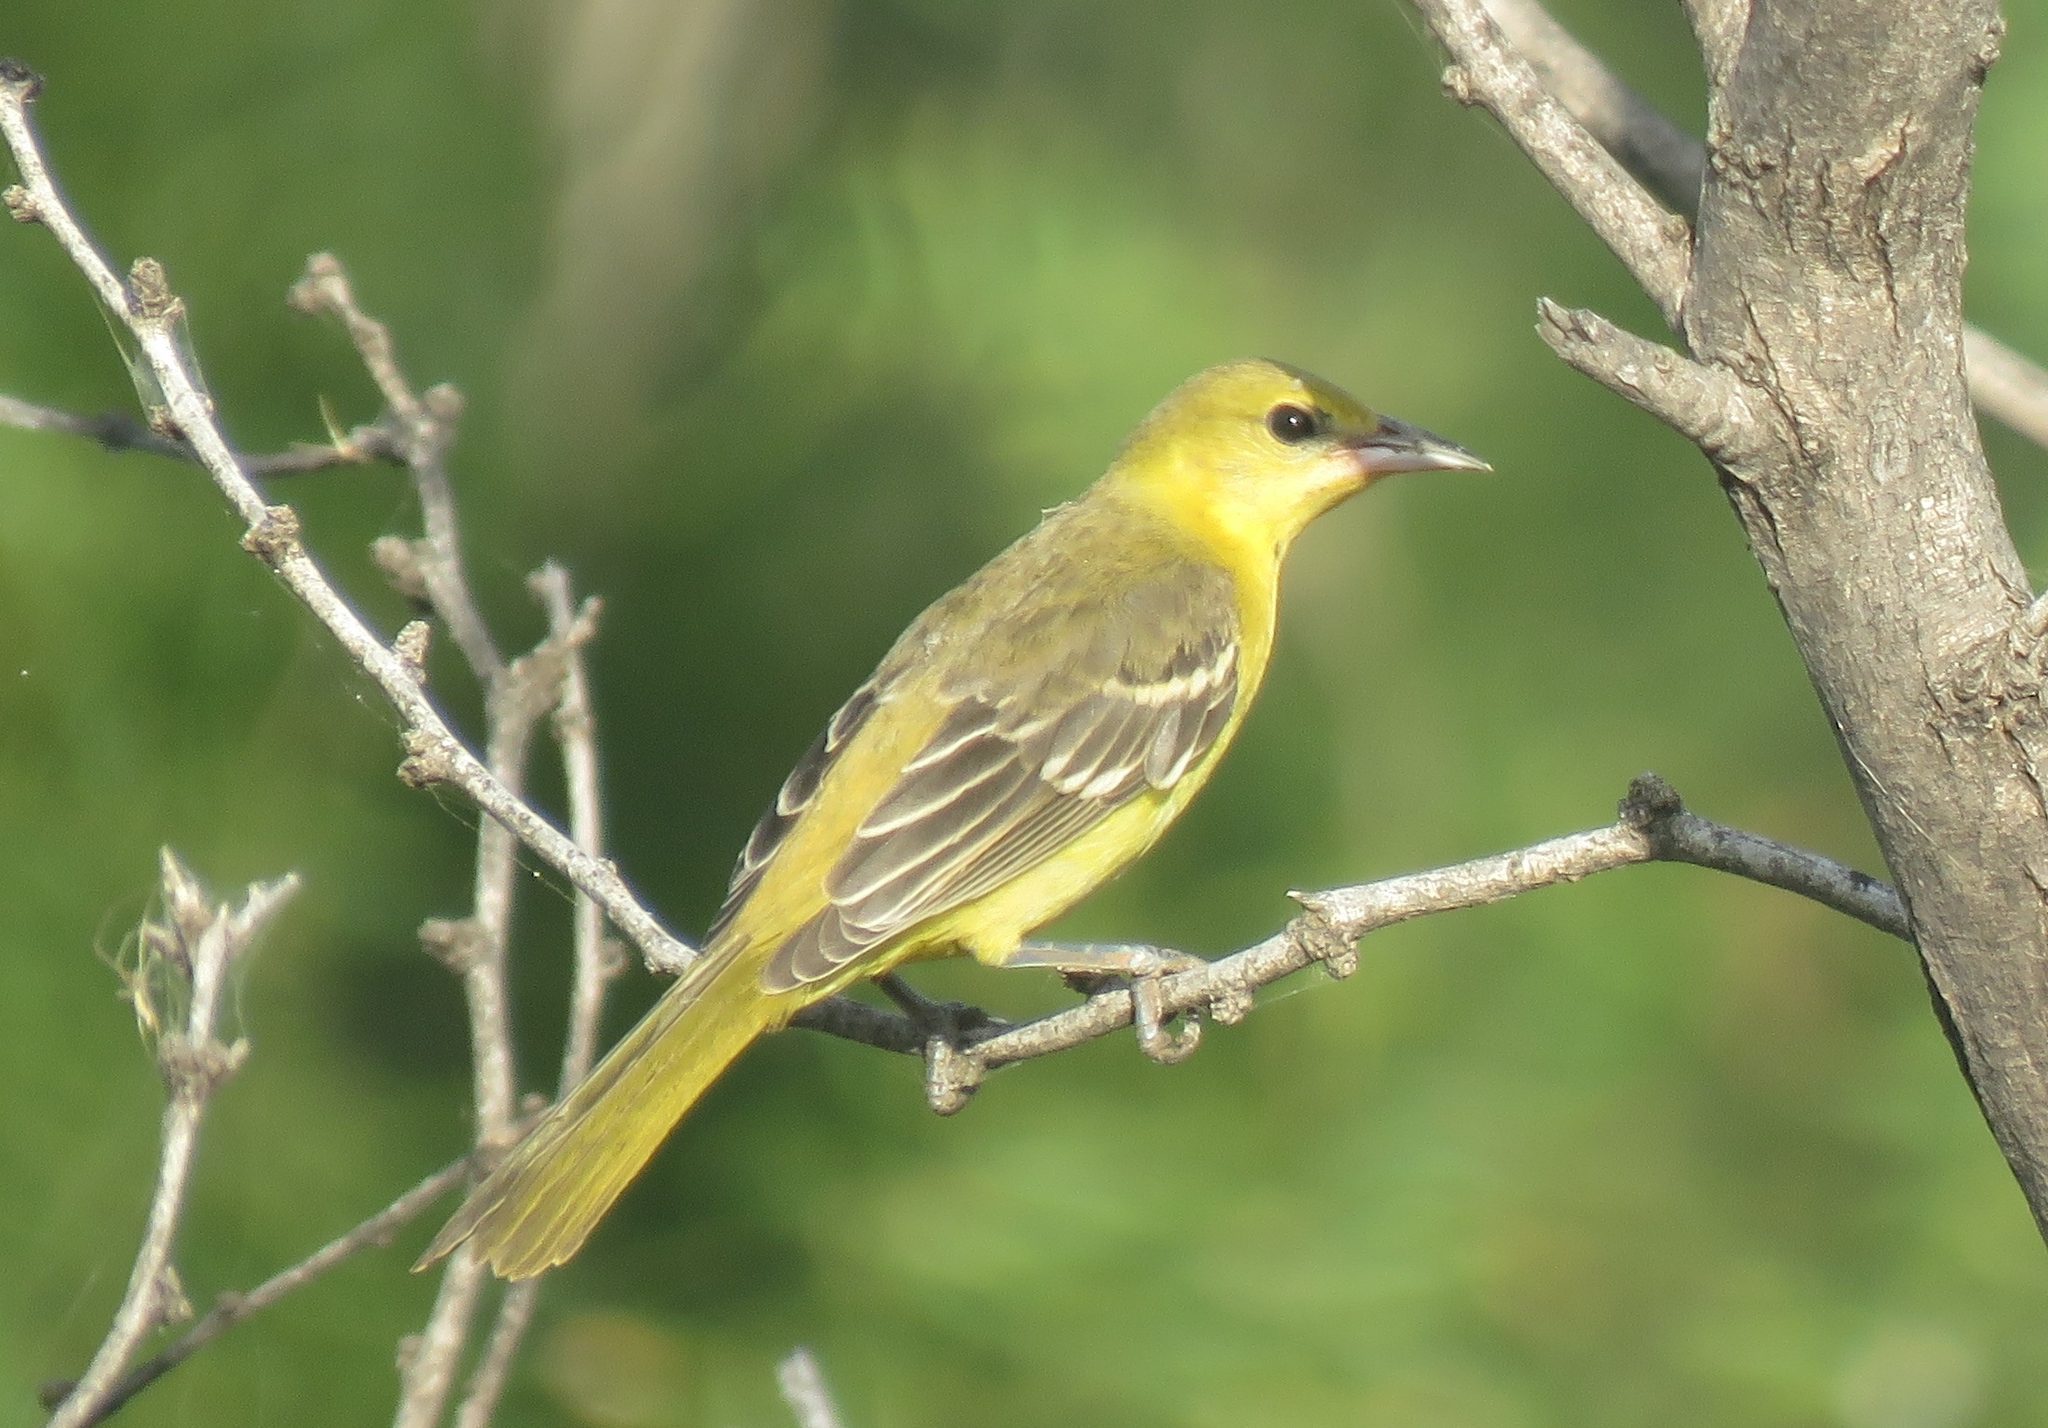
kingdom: Animalia
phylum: Chordata
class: Aves
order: Passeriformes
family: Icteridae
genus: Icterus
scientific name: Icterus spurius
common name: Orchard oriole
